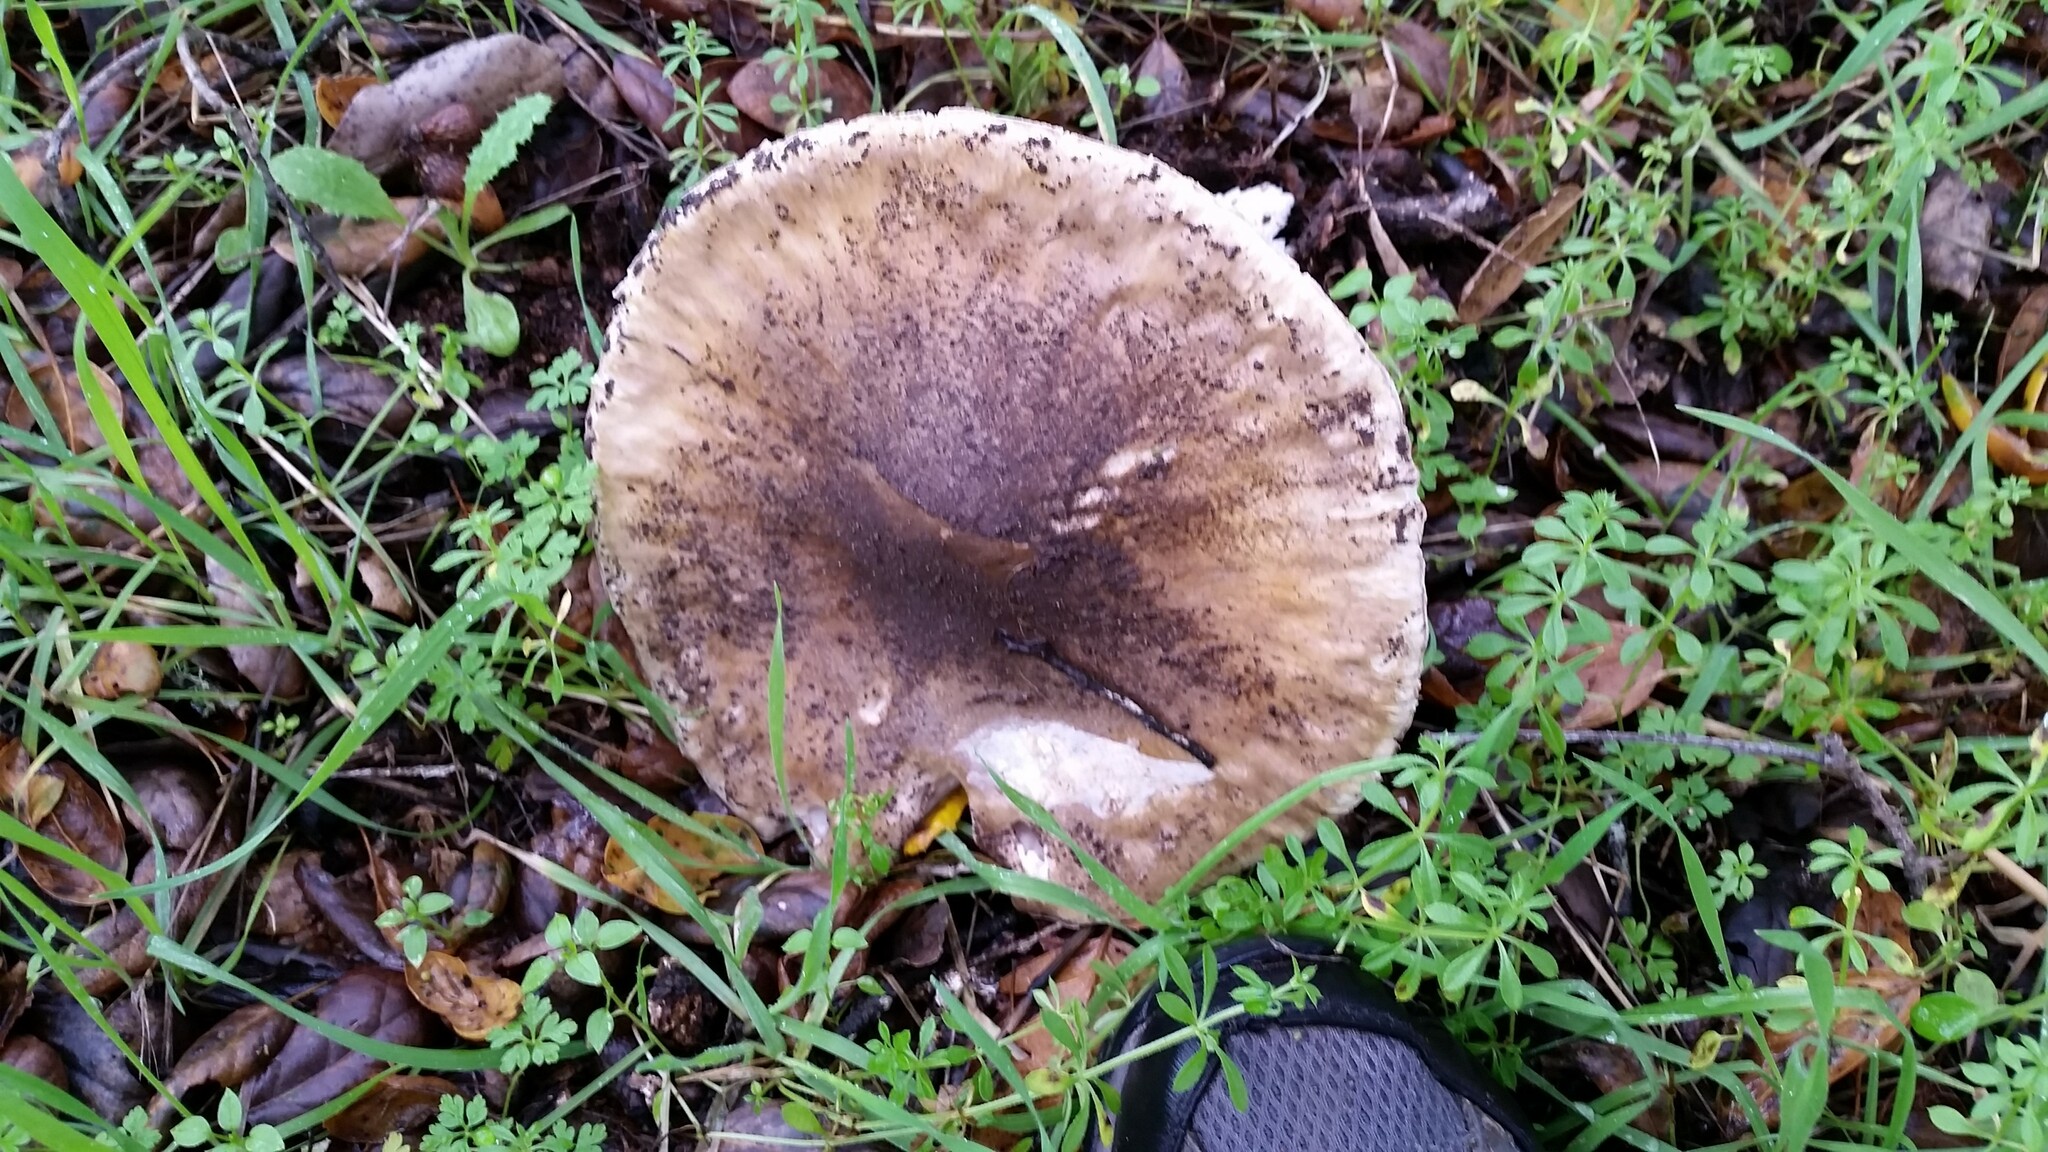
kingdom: Fungi
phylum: Basidiomycota
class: Agaricomycetes
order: Agaricales
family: Amanitaceae
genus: Amanita
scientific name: Amanita phalloides
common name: Death cap
